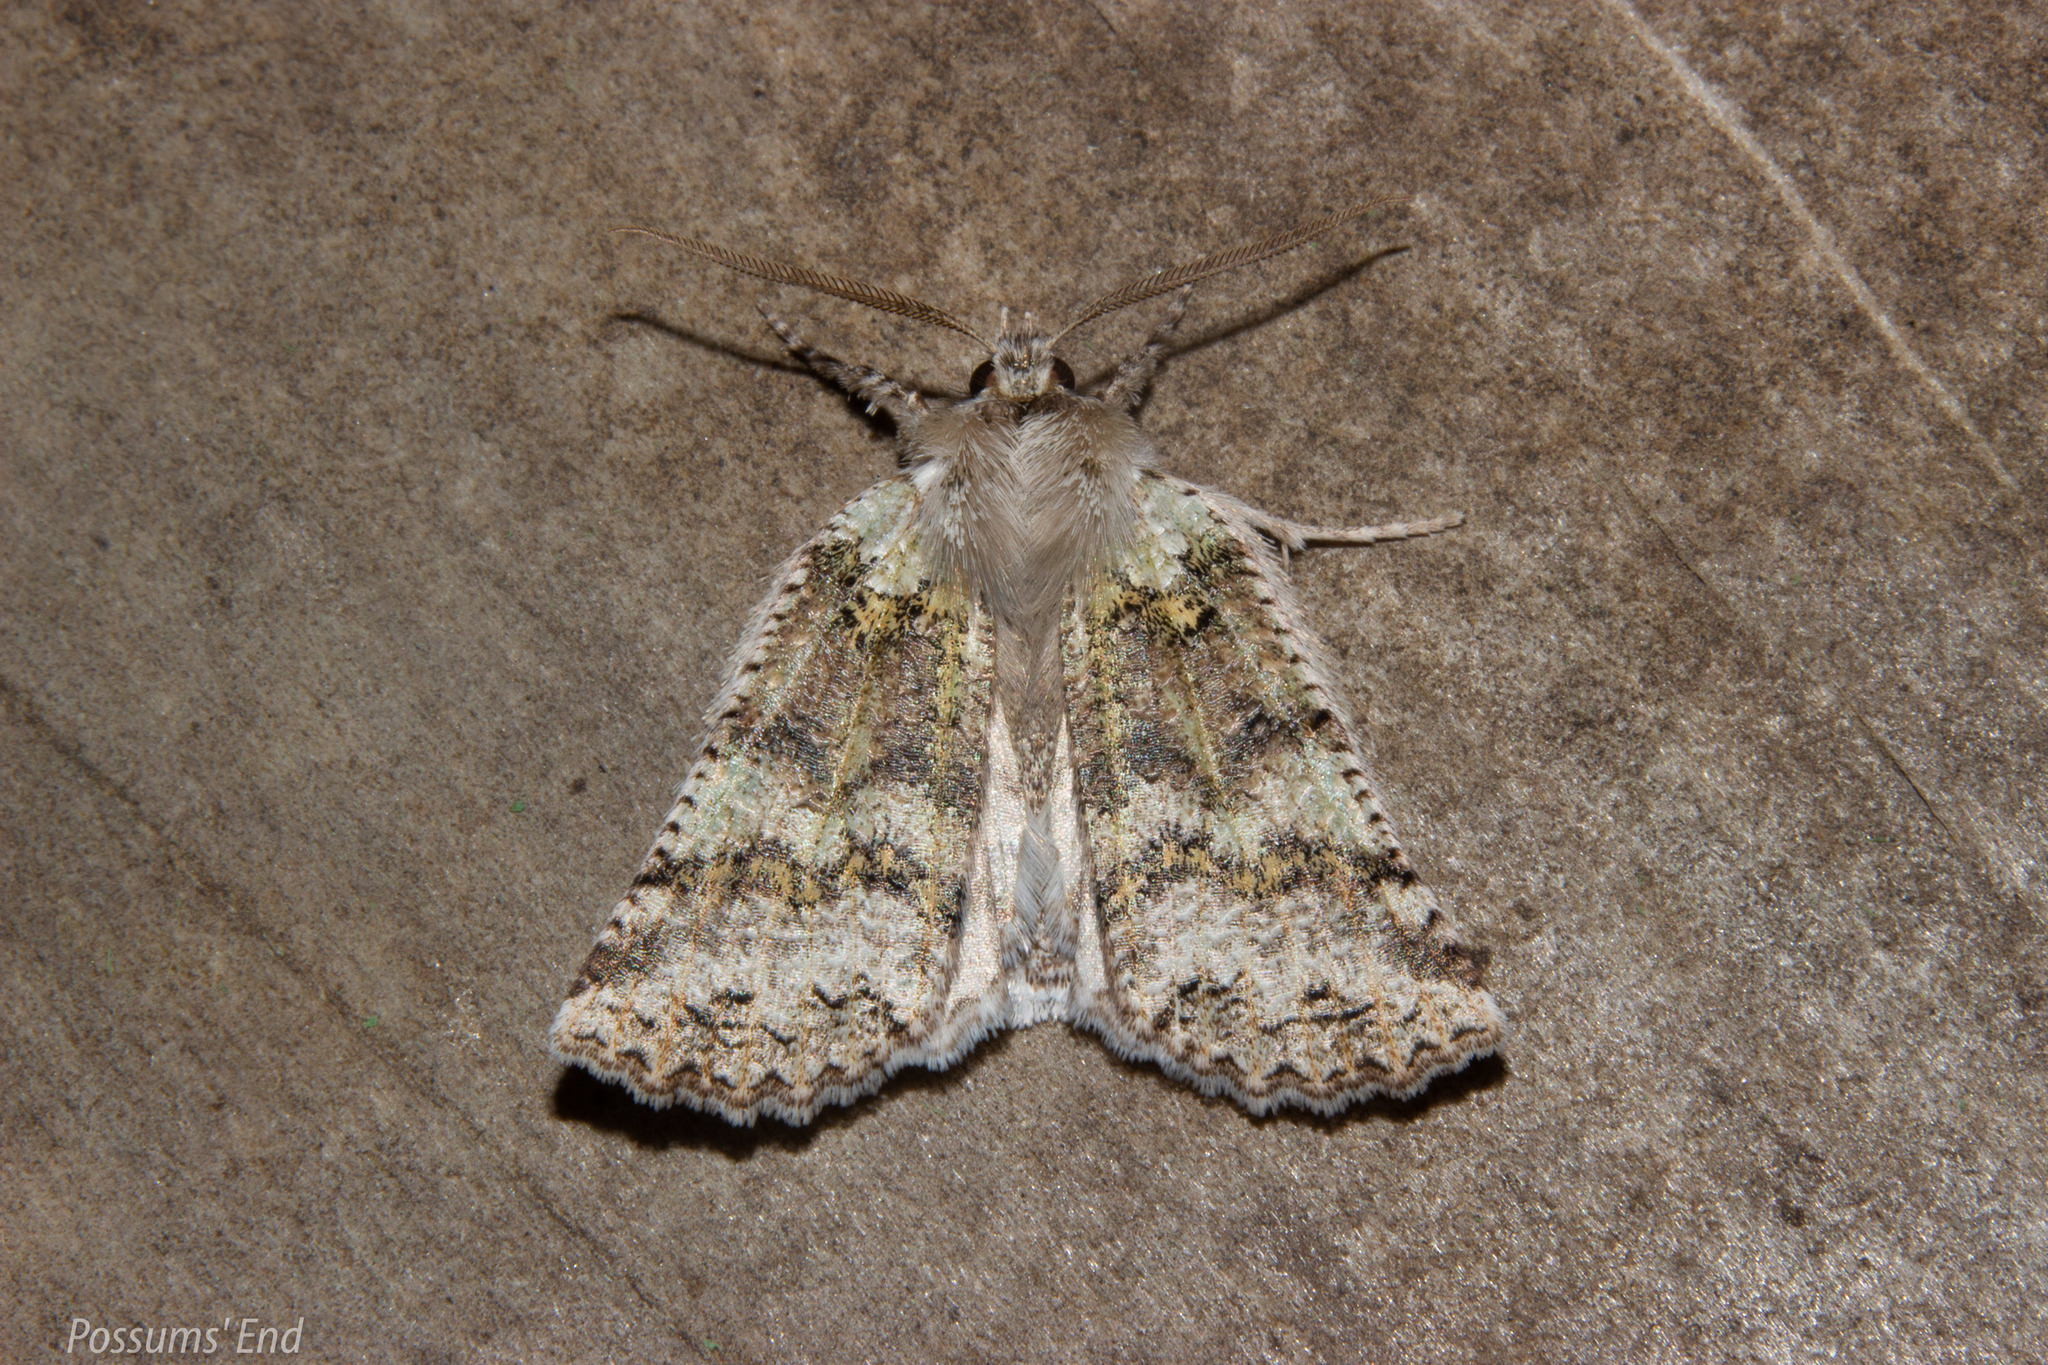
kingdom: Animalia
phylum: Arthropoda
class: Insecta
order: Lepidoptera
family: Geometridae
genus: Declana
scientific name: Declana floccosa
